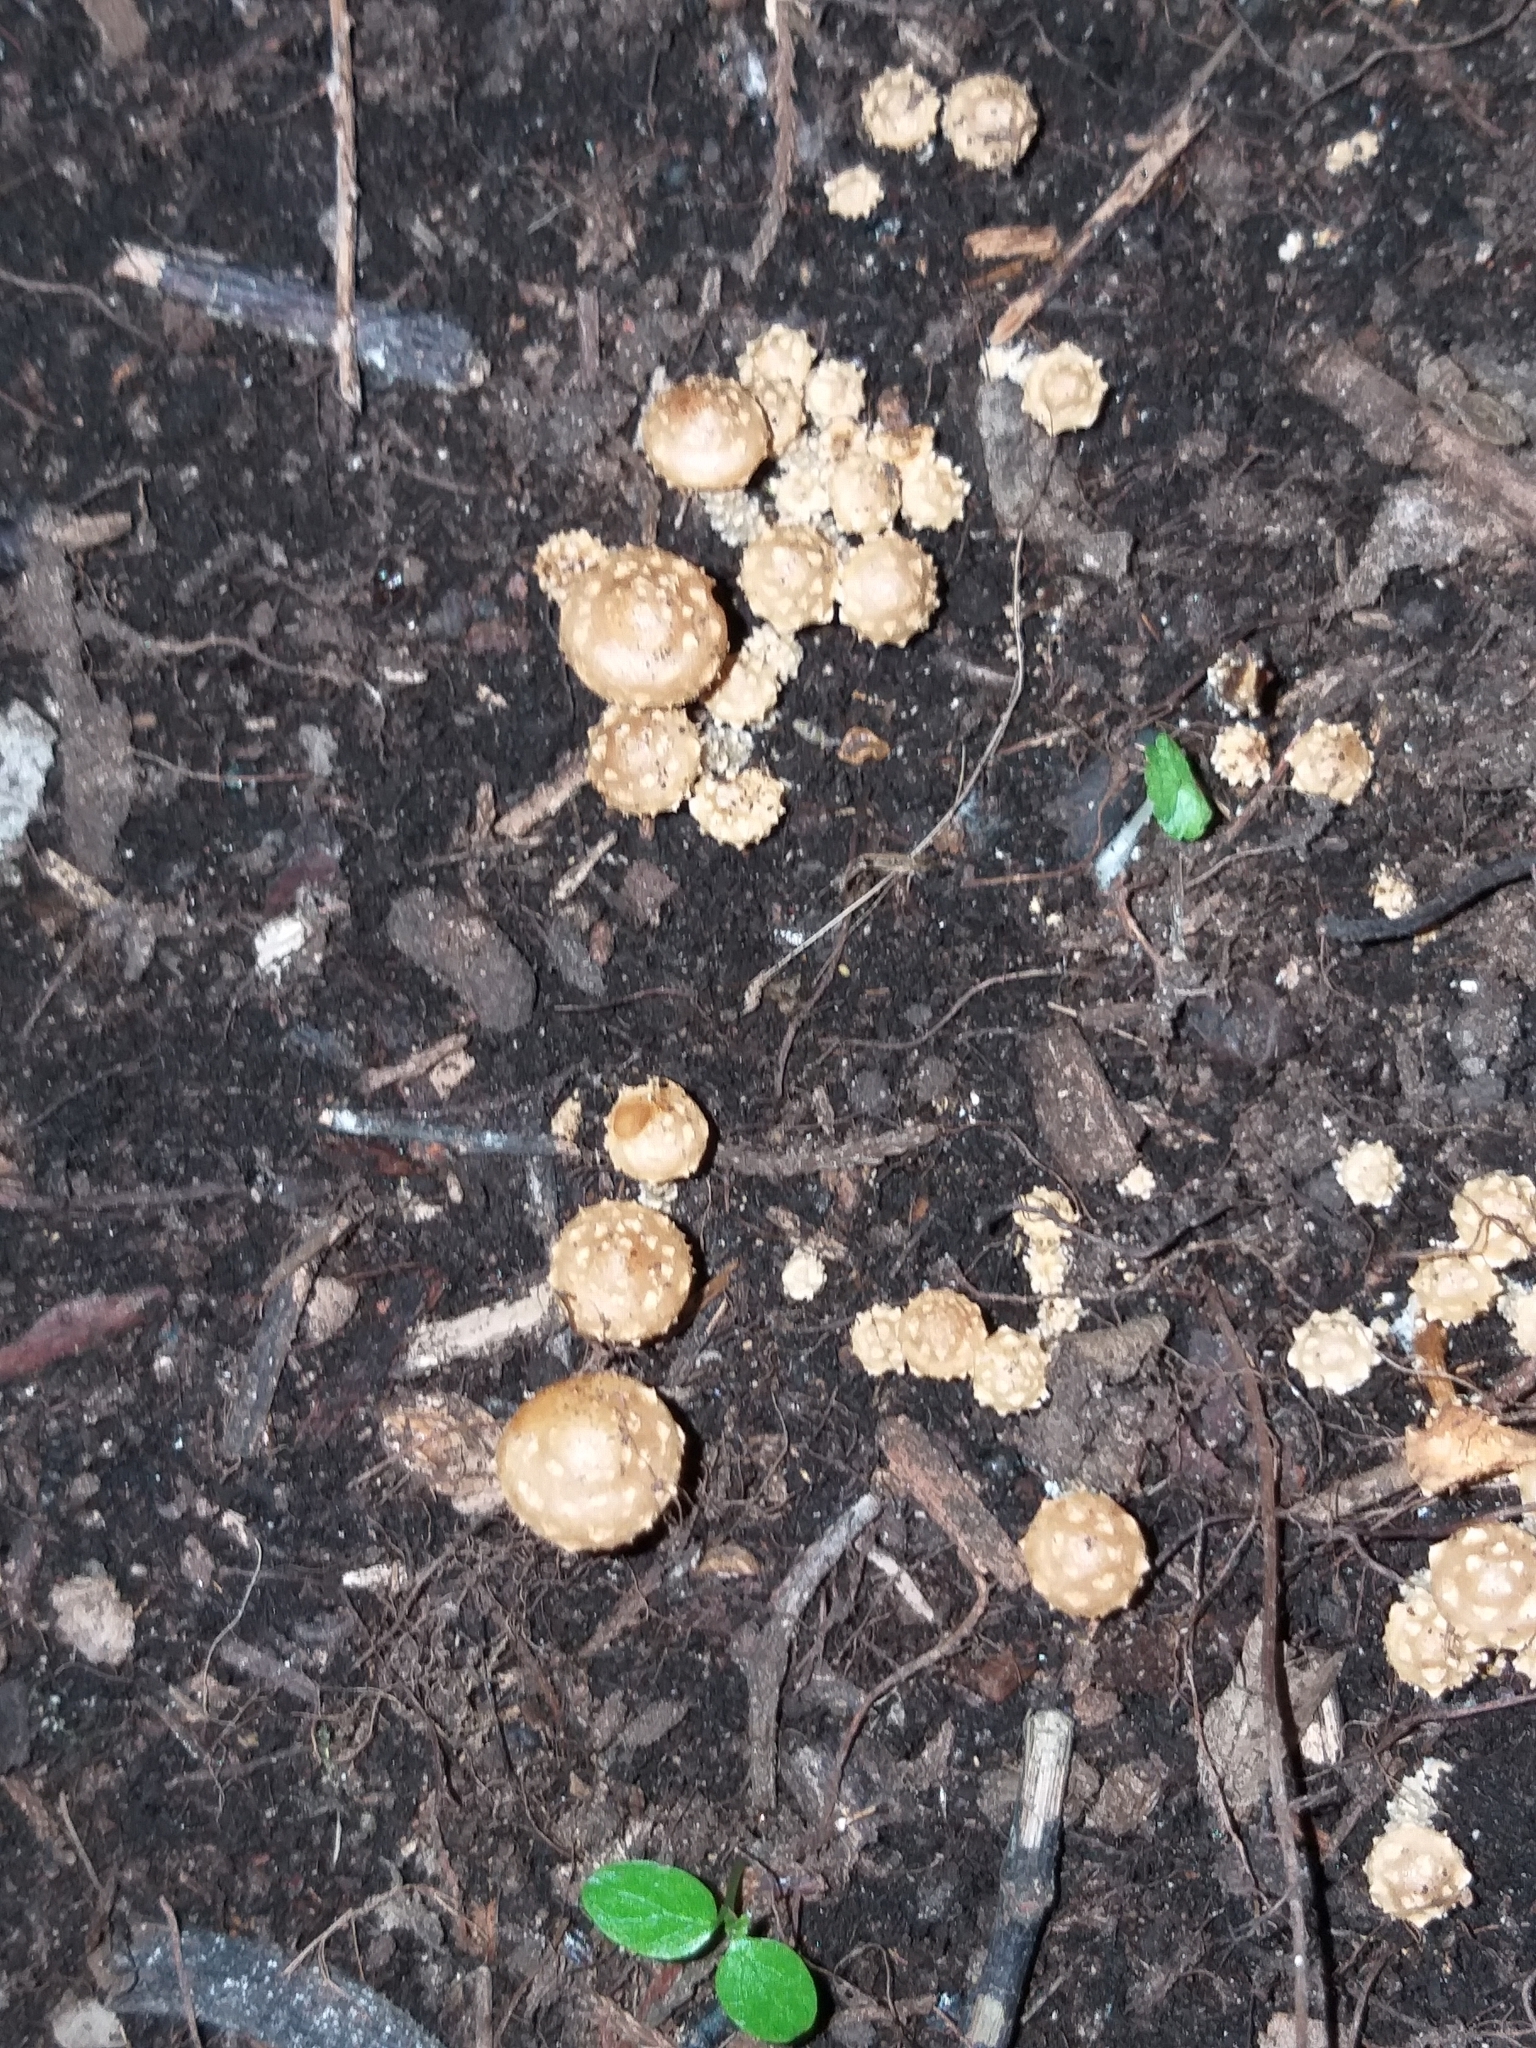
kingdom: Fungi
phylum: Basidiomycota
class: Agaricomycetes
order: Agaricales
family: Strophariaceae
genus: Pholiota
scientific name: Pholiota subflammans
